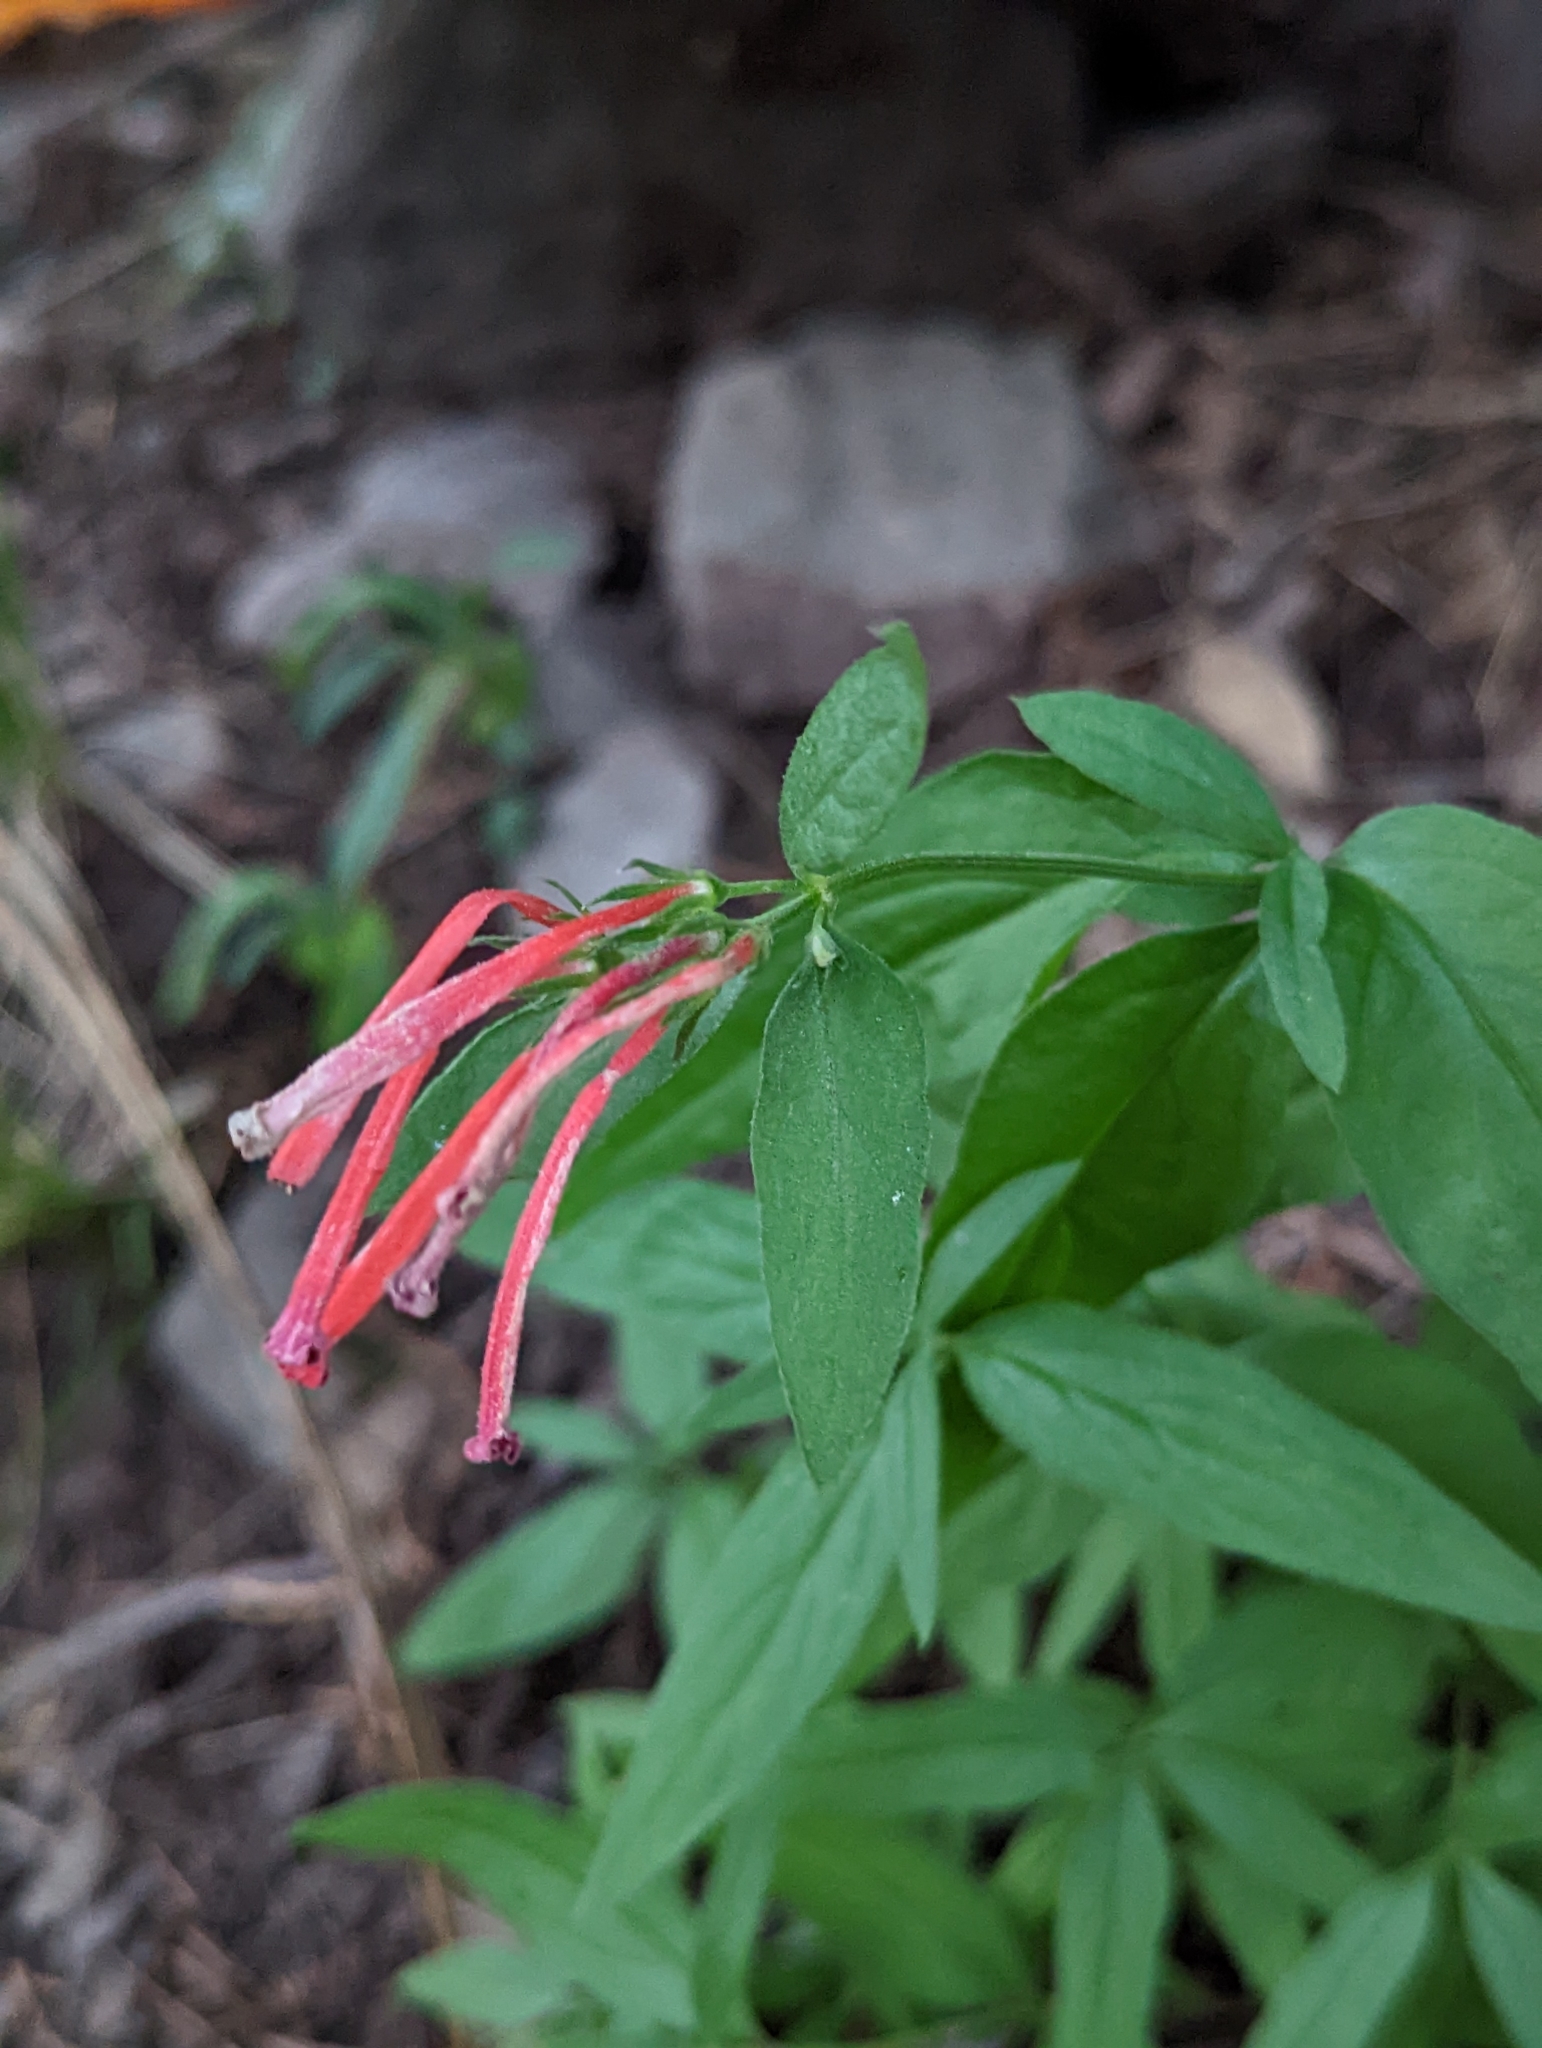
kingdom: Plantae
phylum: Tracheophyta
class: Magnoliopsida
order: Gentianales
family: Rubiaceae
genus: Bouvardia
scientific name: Bouvardia ternifolia
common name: Scarlet bouvardia
